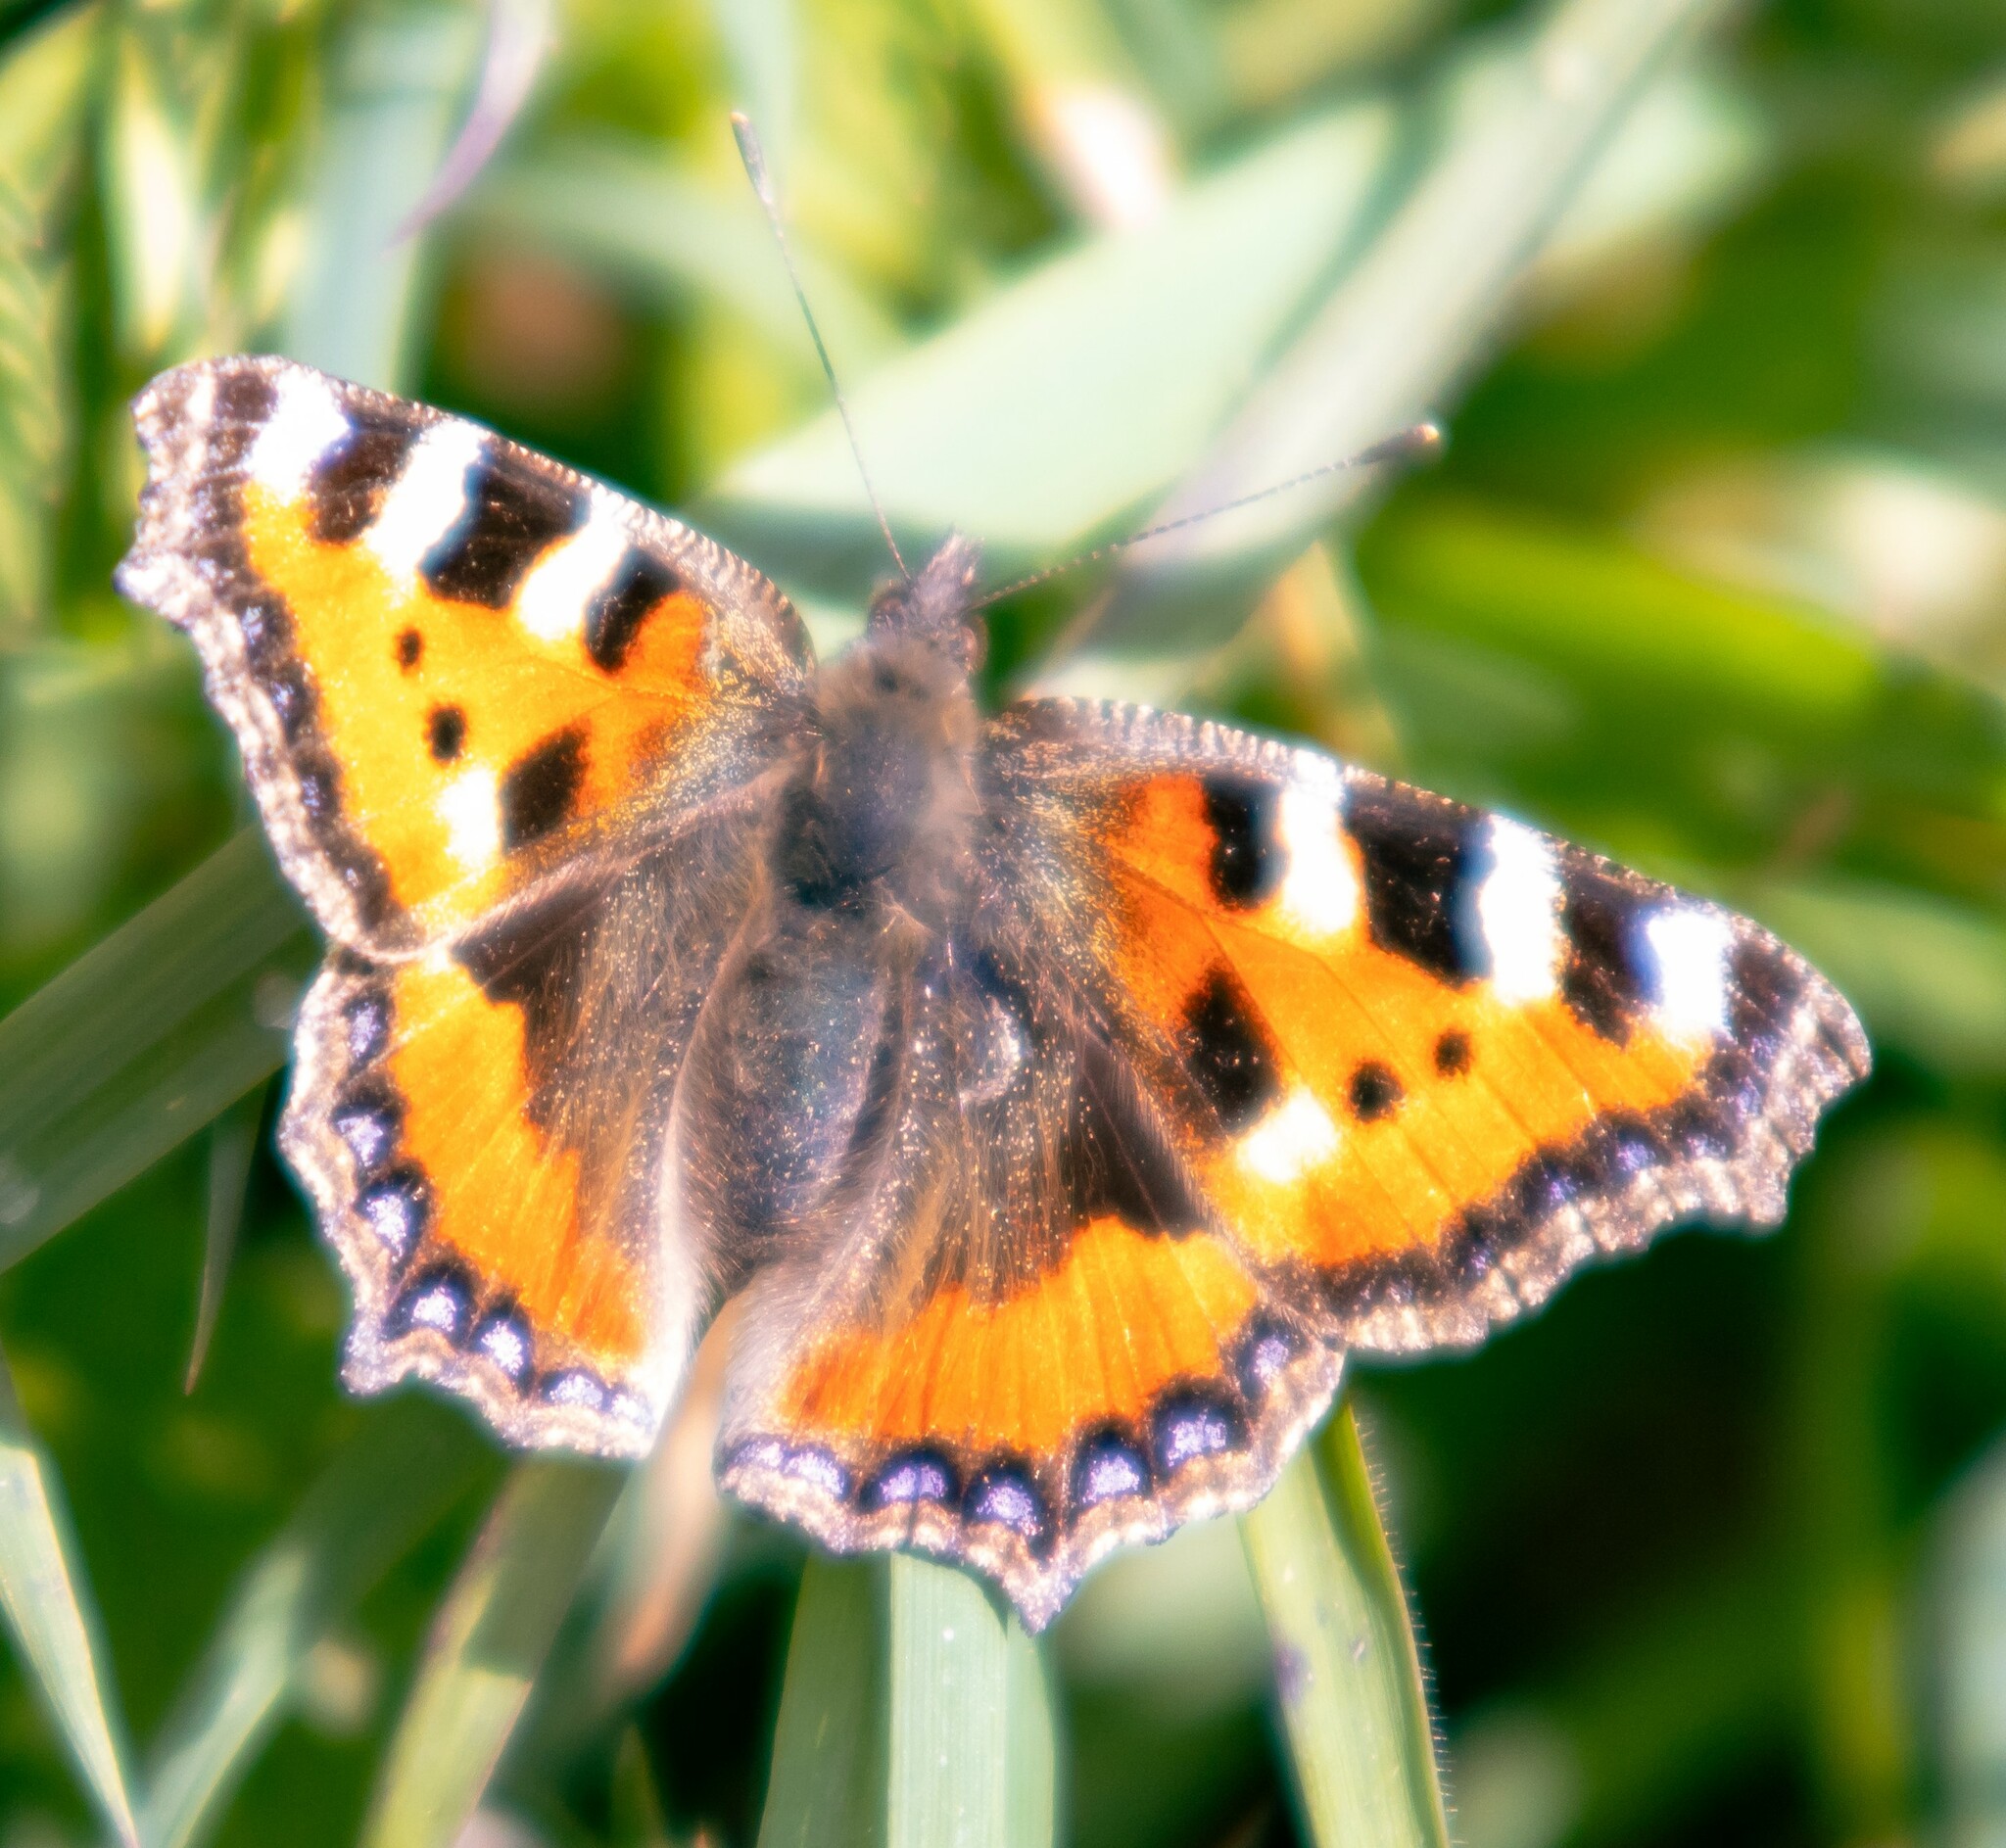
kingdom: Animalia
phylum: Arthropoda
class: Insecta
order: Lepidoptera
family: Nymphalidae
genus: Aglais
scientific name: Aglais urticae
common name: Small tortoiseshell
